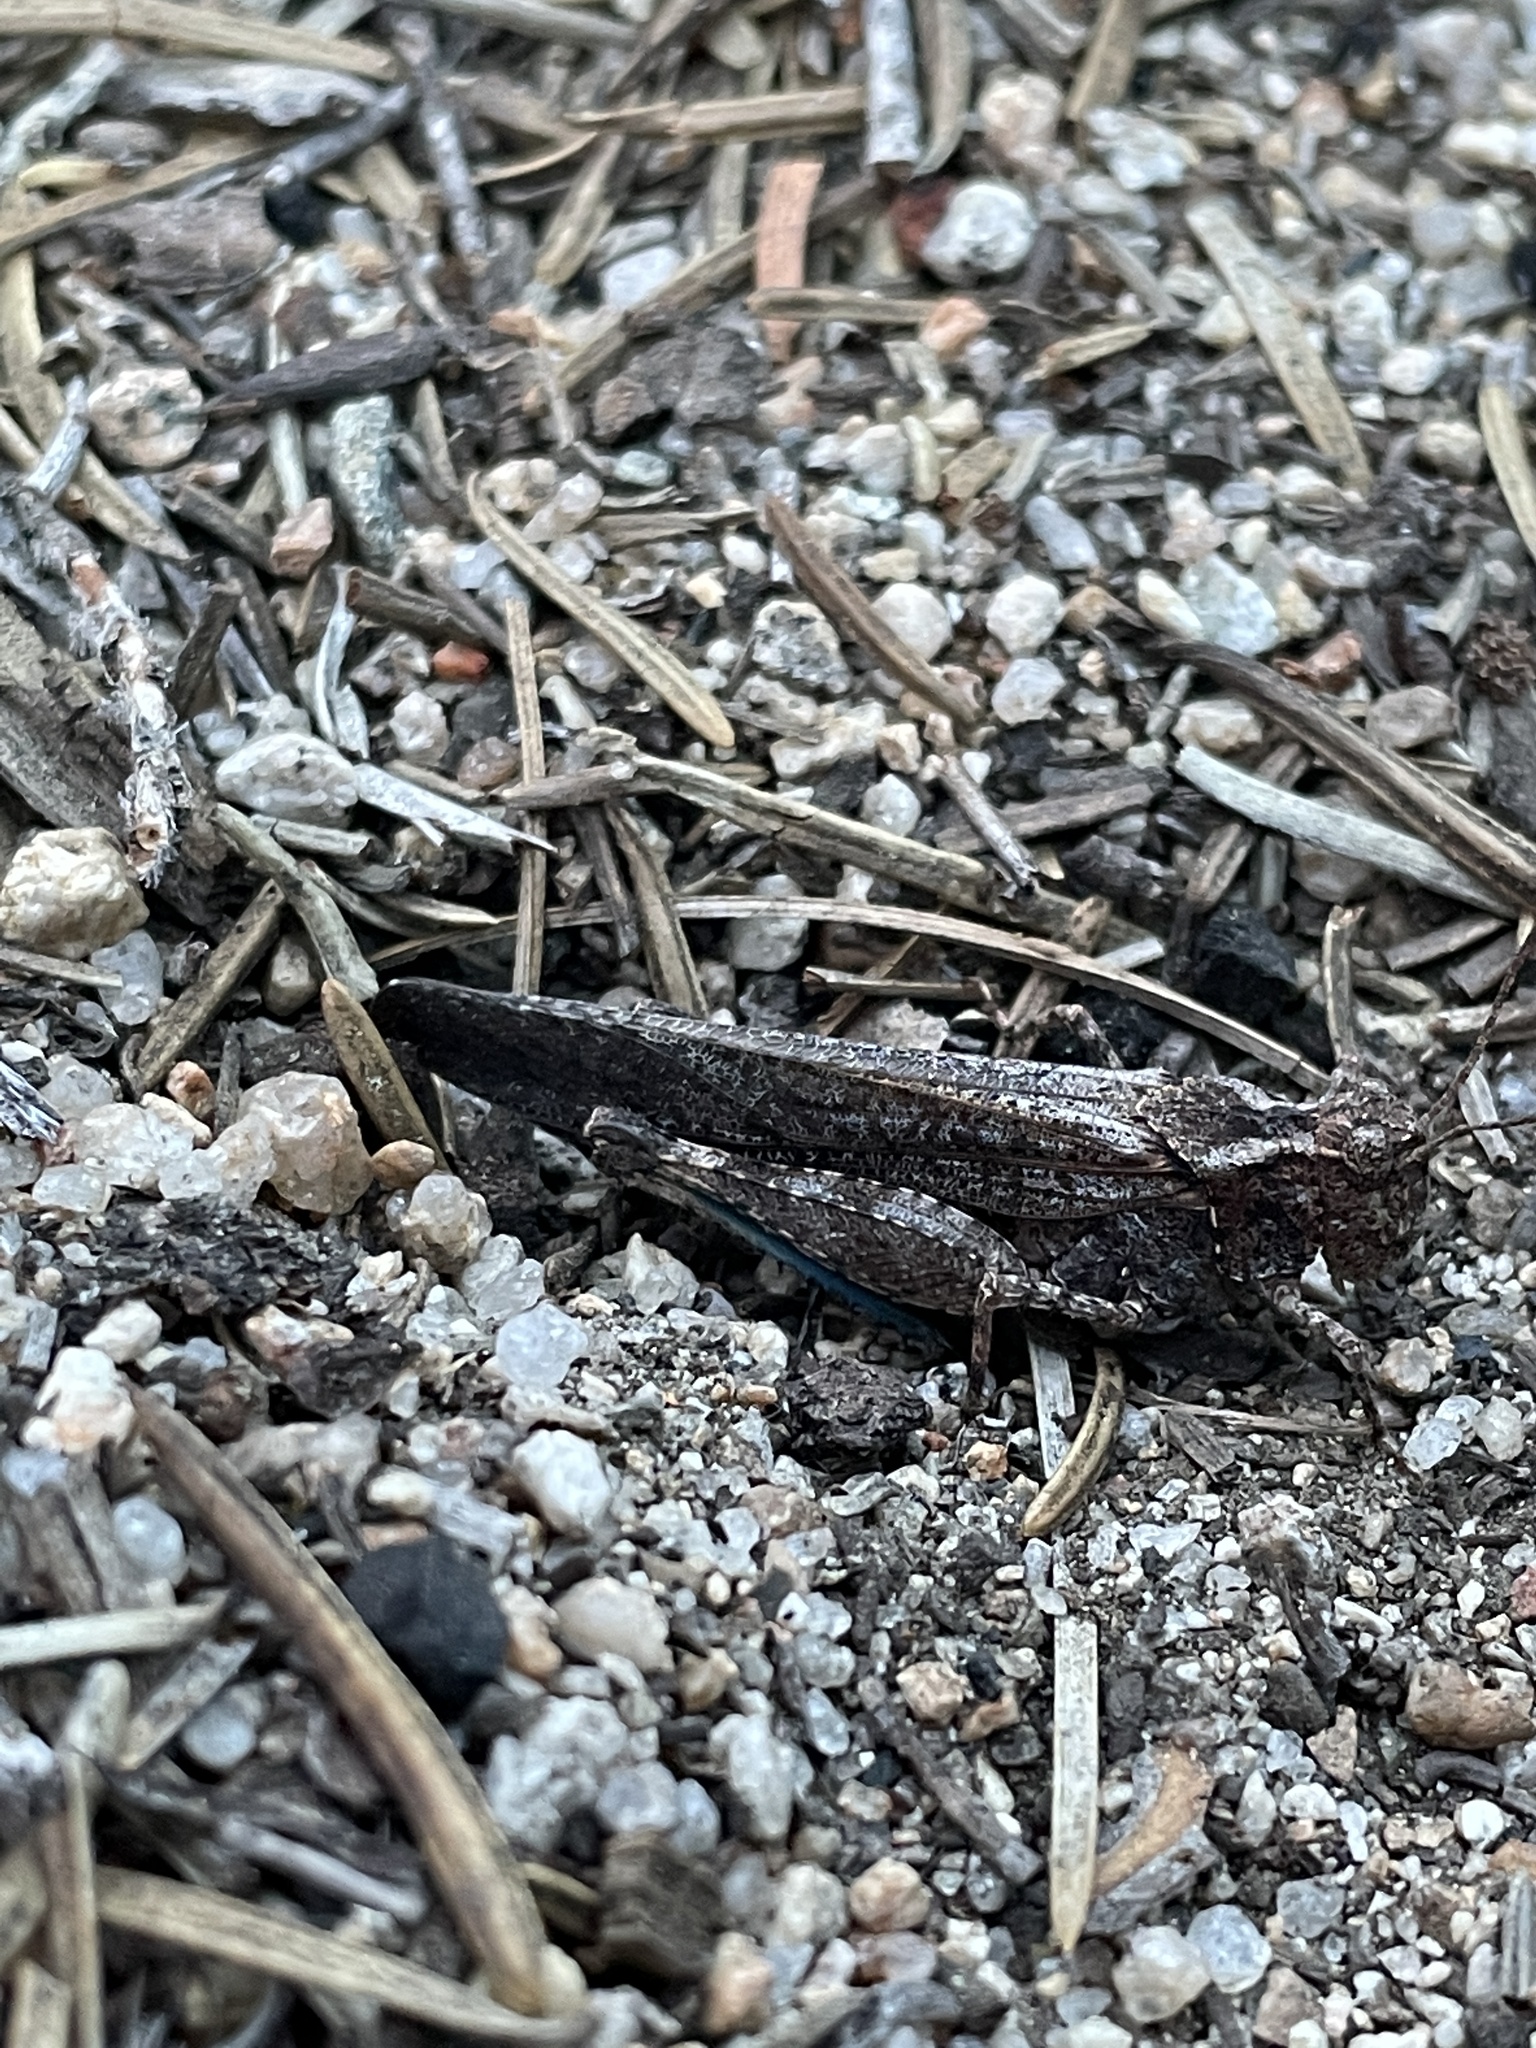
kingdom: Animalia
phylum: Arthropoda
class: Insecta
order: Orthoptera
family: Acrididae
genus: Trimerotropis
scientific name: Trimerotropis verruculata
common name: Crackling forest grasshopper
